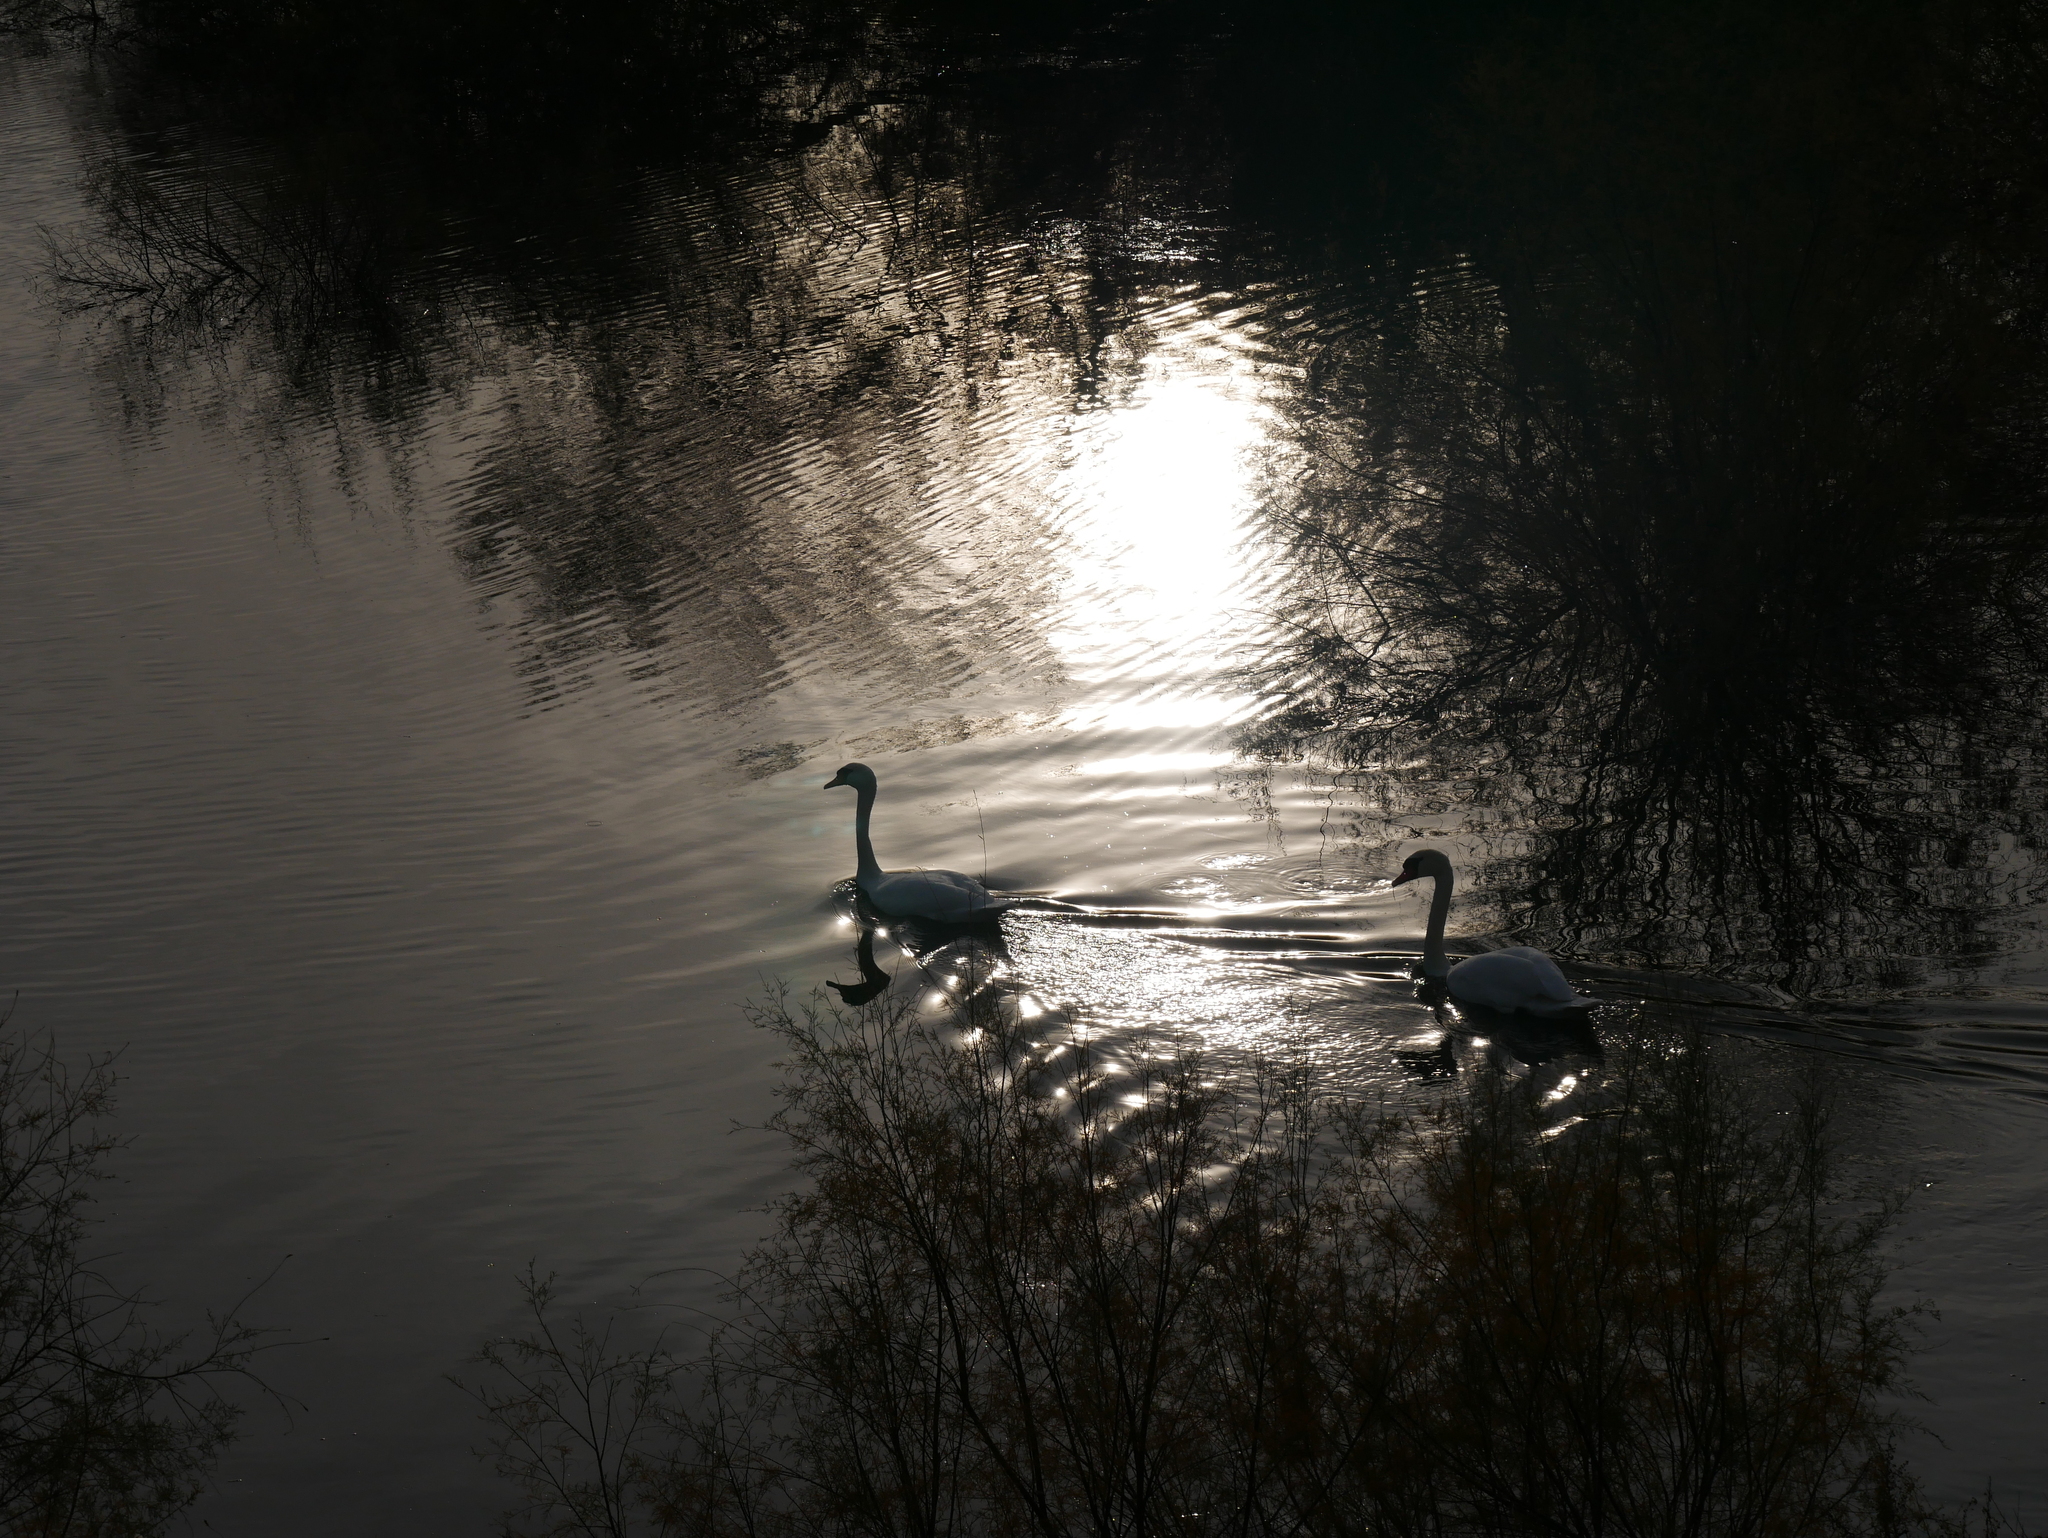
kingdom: Animalia
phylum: Chordata
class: Aves
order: Anseriformes
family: Anatidae
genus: Cygnus
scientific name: Cygnus olor
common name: Mute swan
